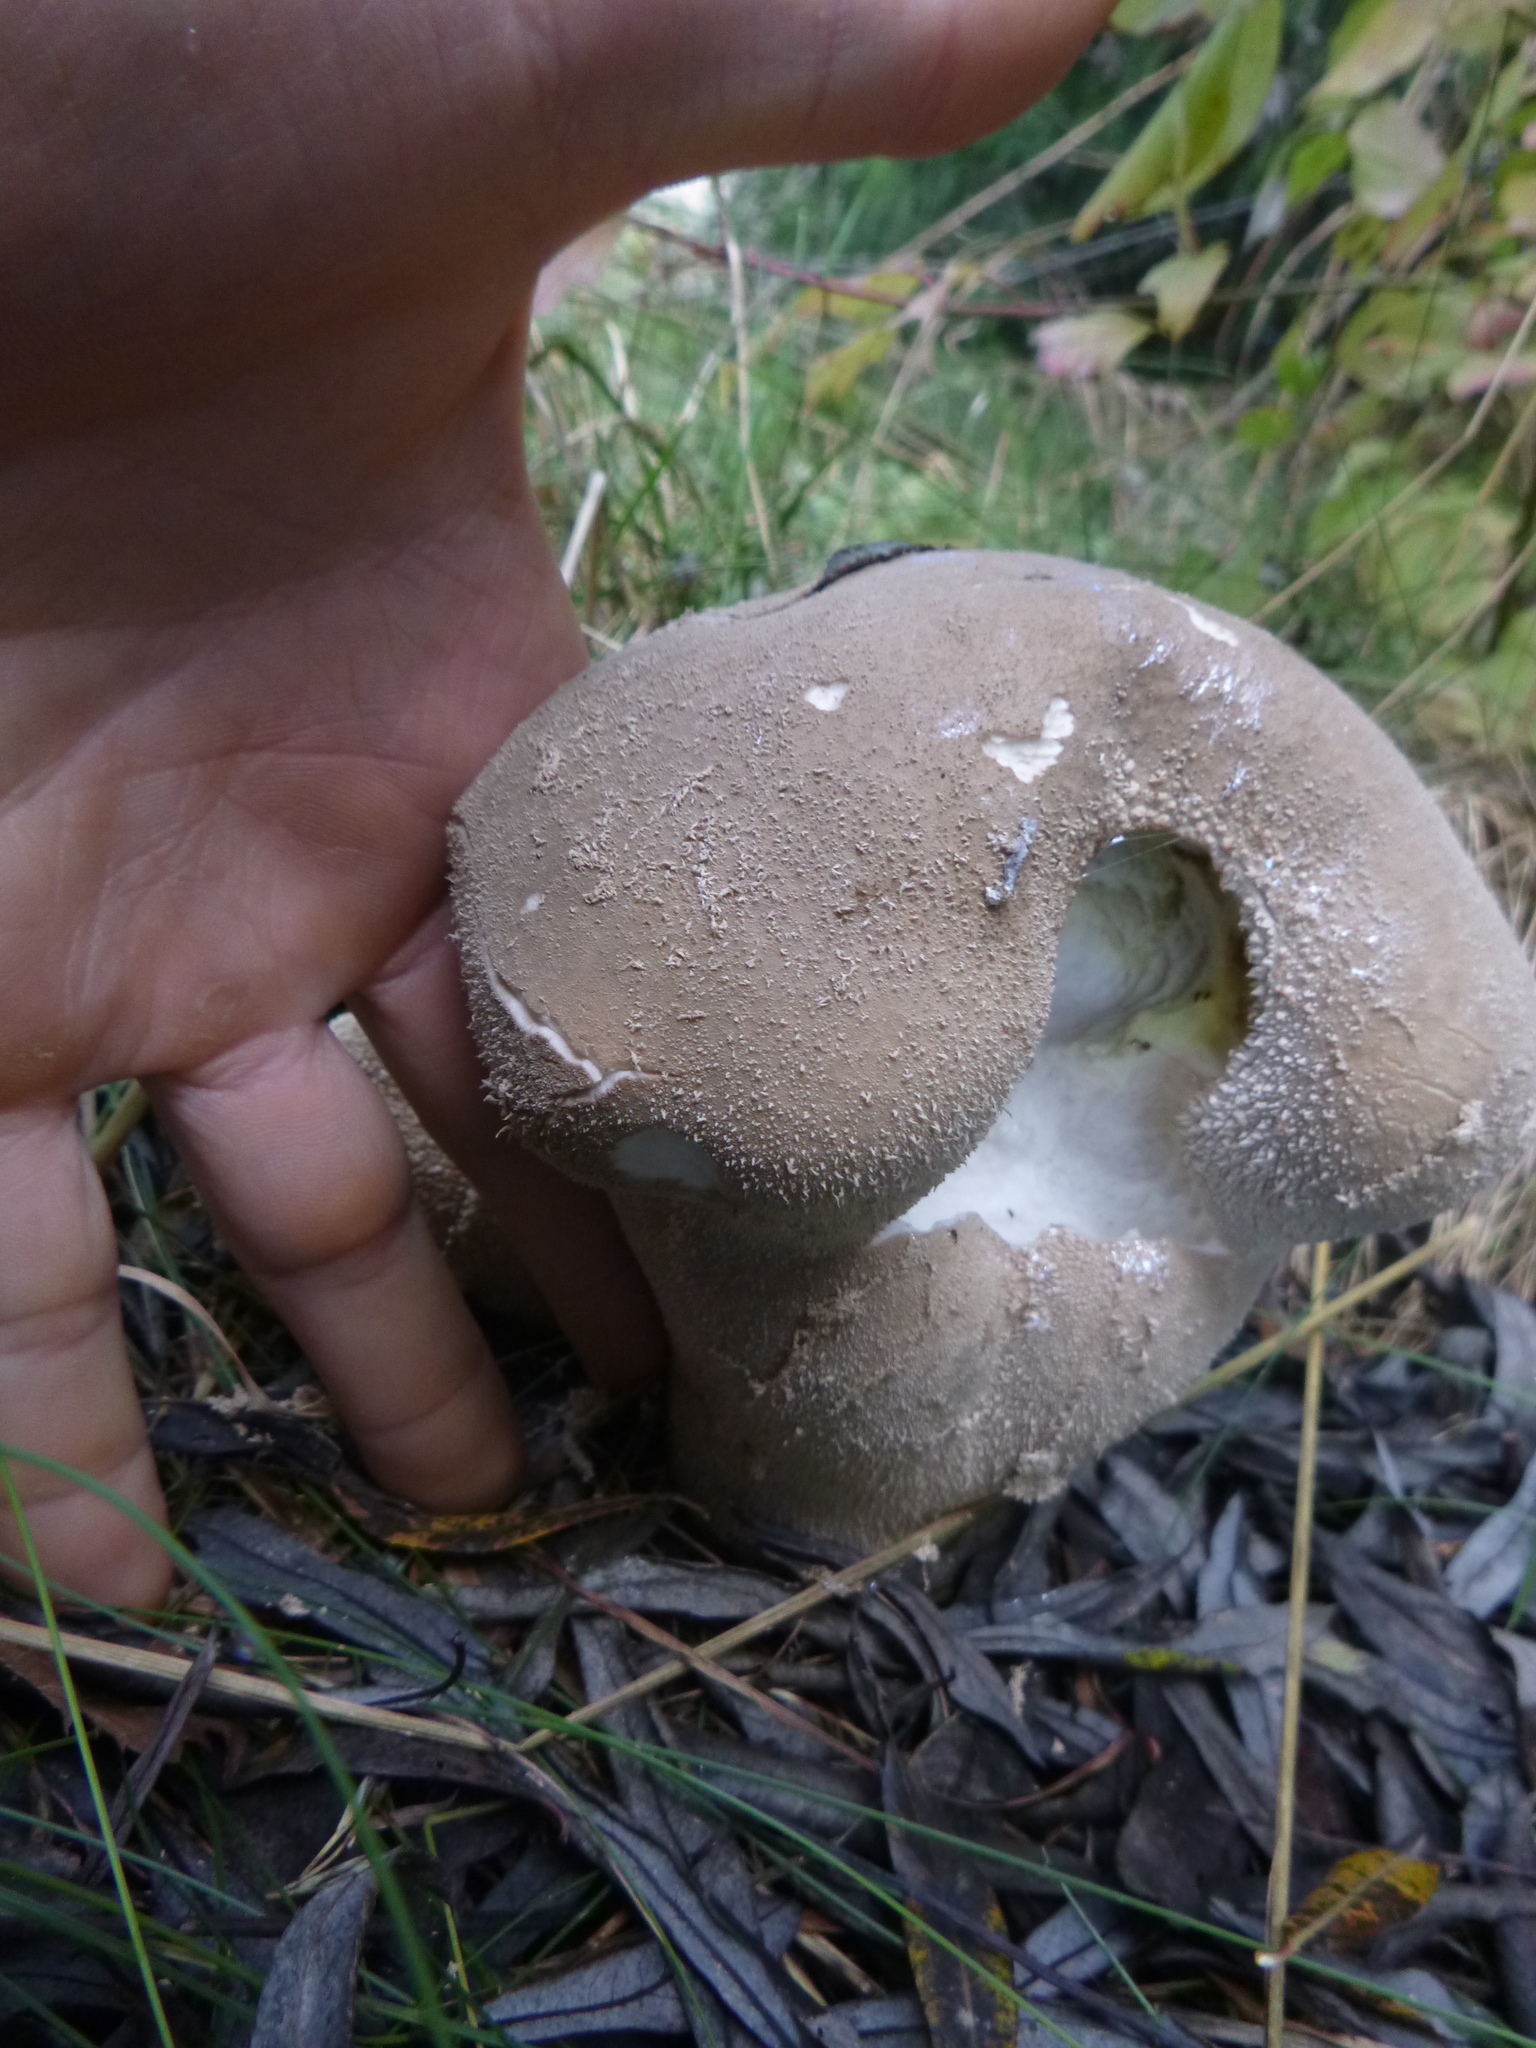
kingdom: Fungi
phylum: Basidiomycota
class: Agaricomycetes
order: Agaricales
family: Lycoperdaceae
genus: Lycoperdon
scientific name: Lycoperdon excipuliforme
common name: Pestle puffball
